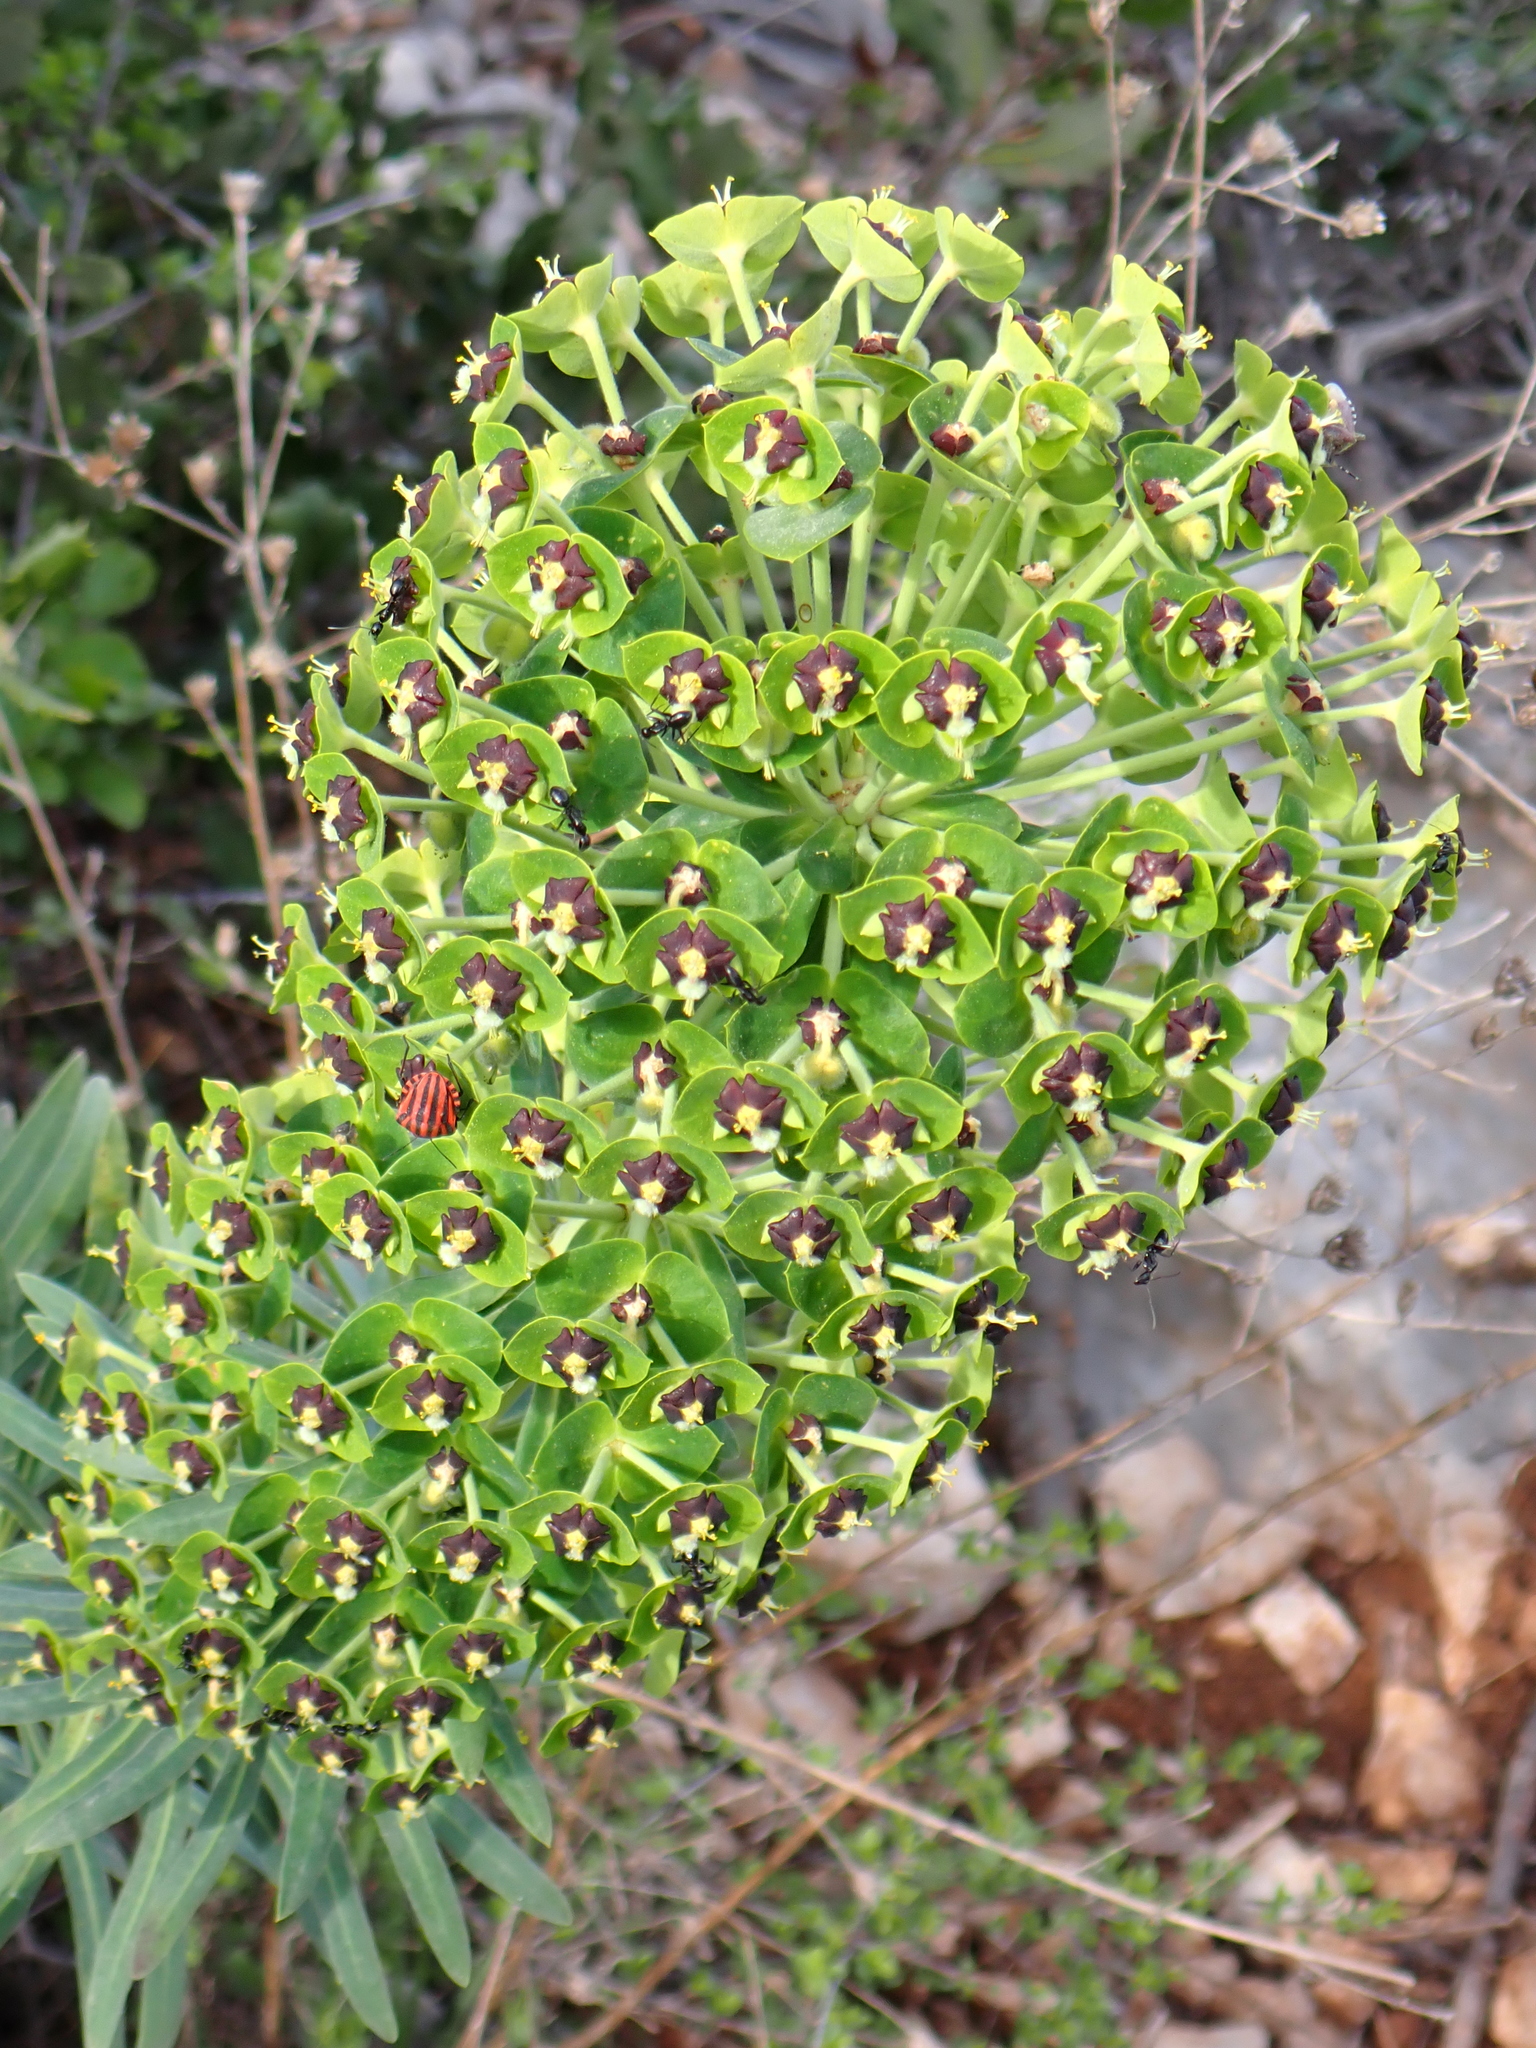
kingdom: Plantae
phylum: Tracheophyta
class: Magnoliopsida
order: Malpighiales
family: Euphorbiaceae
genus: Euphorbia
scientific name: Euphorbia characias
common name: Mediterranean spurge
